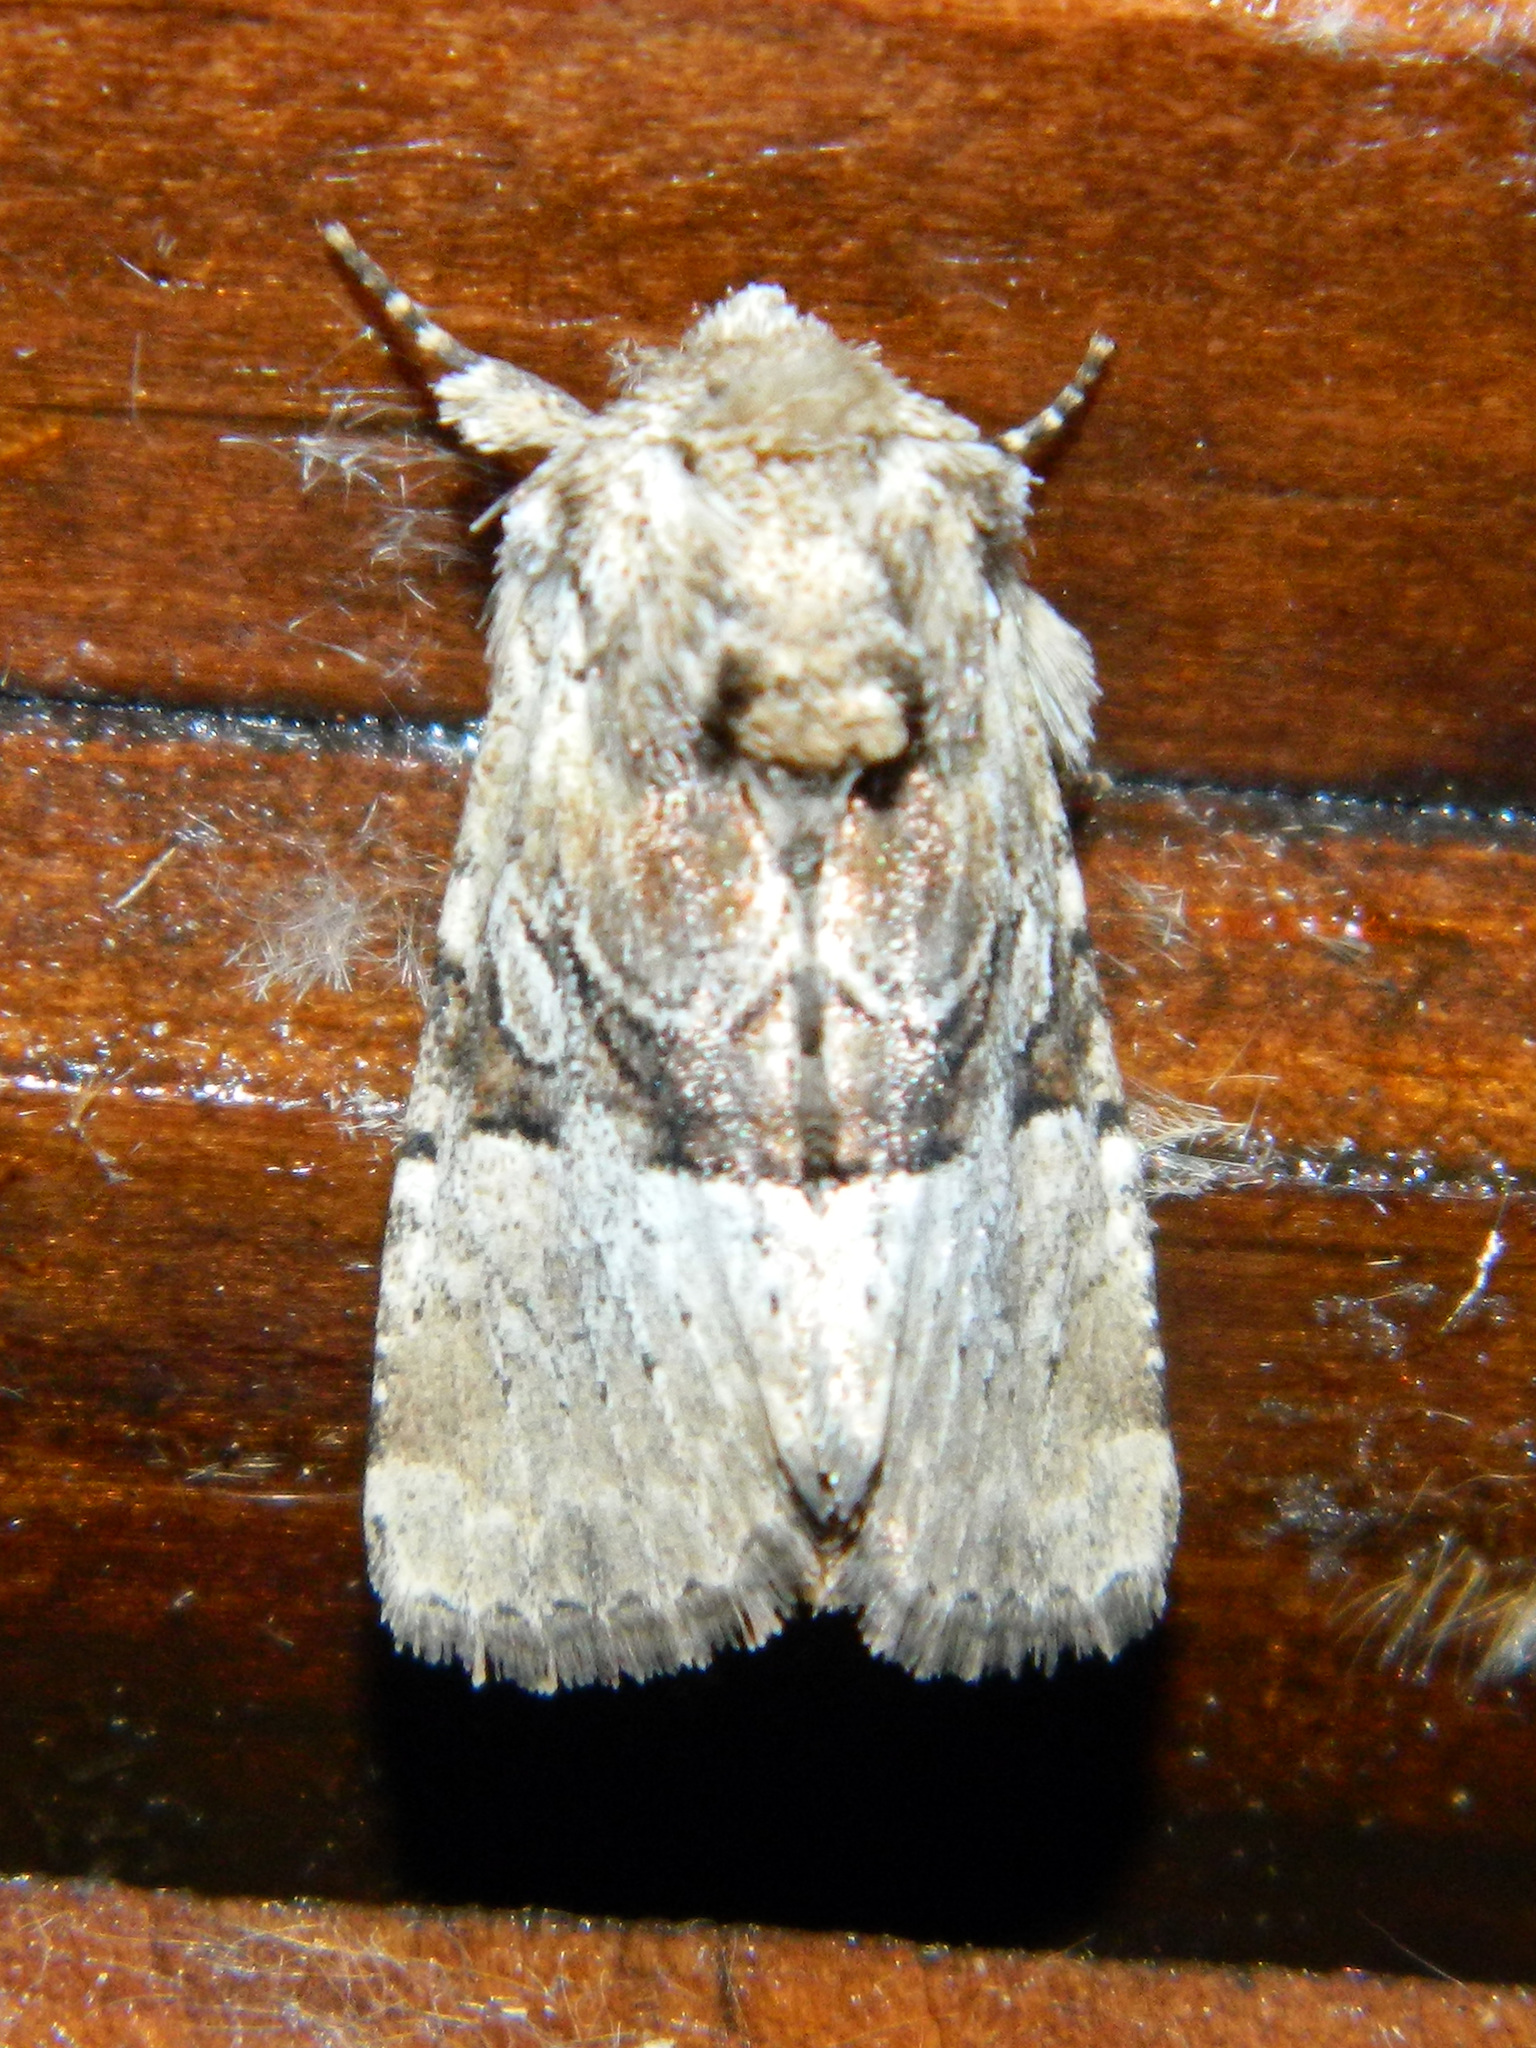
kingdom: Animalia
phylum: Arthropoda
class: Insecta
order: Lepidoptera
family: Noctuidae
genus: Meropleon
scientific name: Meropleon diversicolor
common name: Multicolored sedgeminer moth
